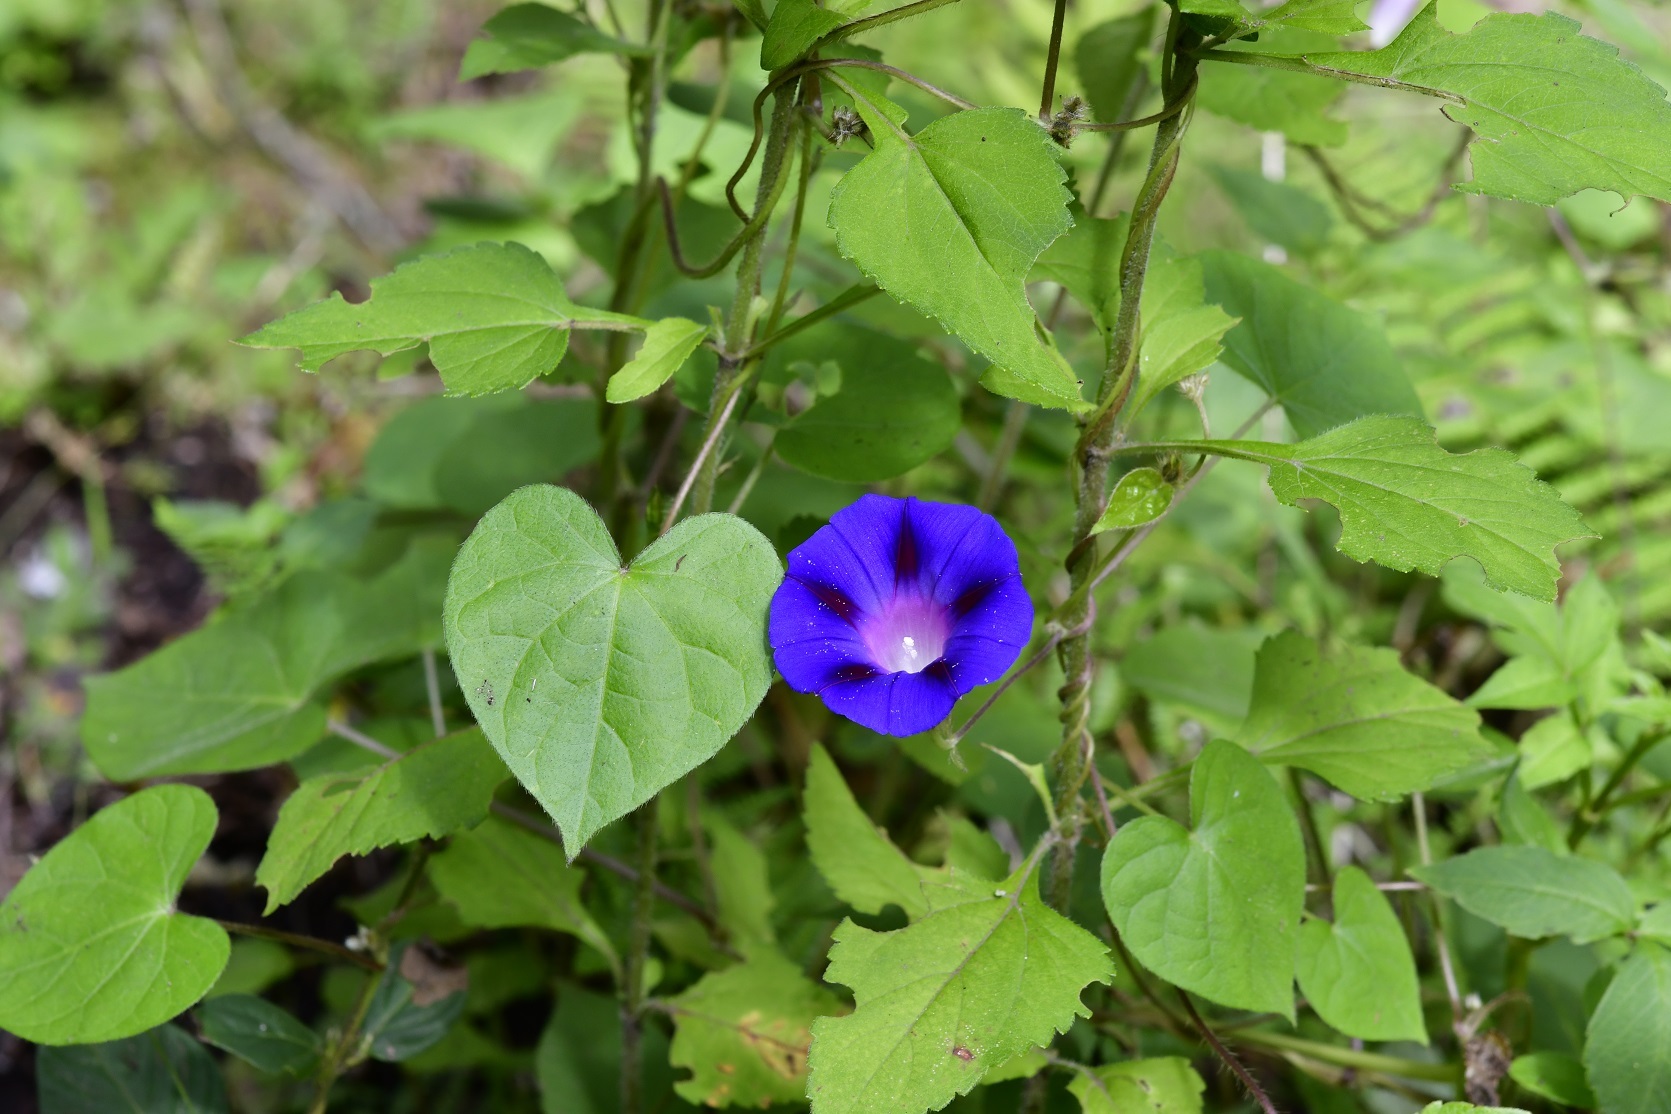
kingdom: Plantae
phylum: Tracheophyta
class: Magnoliopsida
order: Solanales
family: Convolvulaceae
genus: Ipomoea
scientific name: Ipomoea purpurea
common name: Common morning-glory
